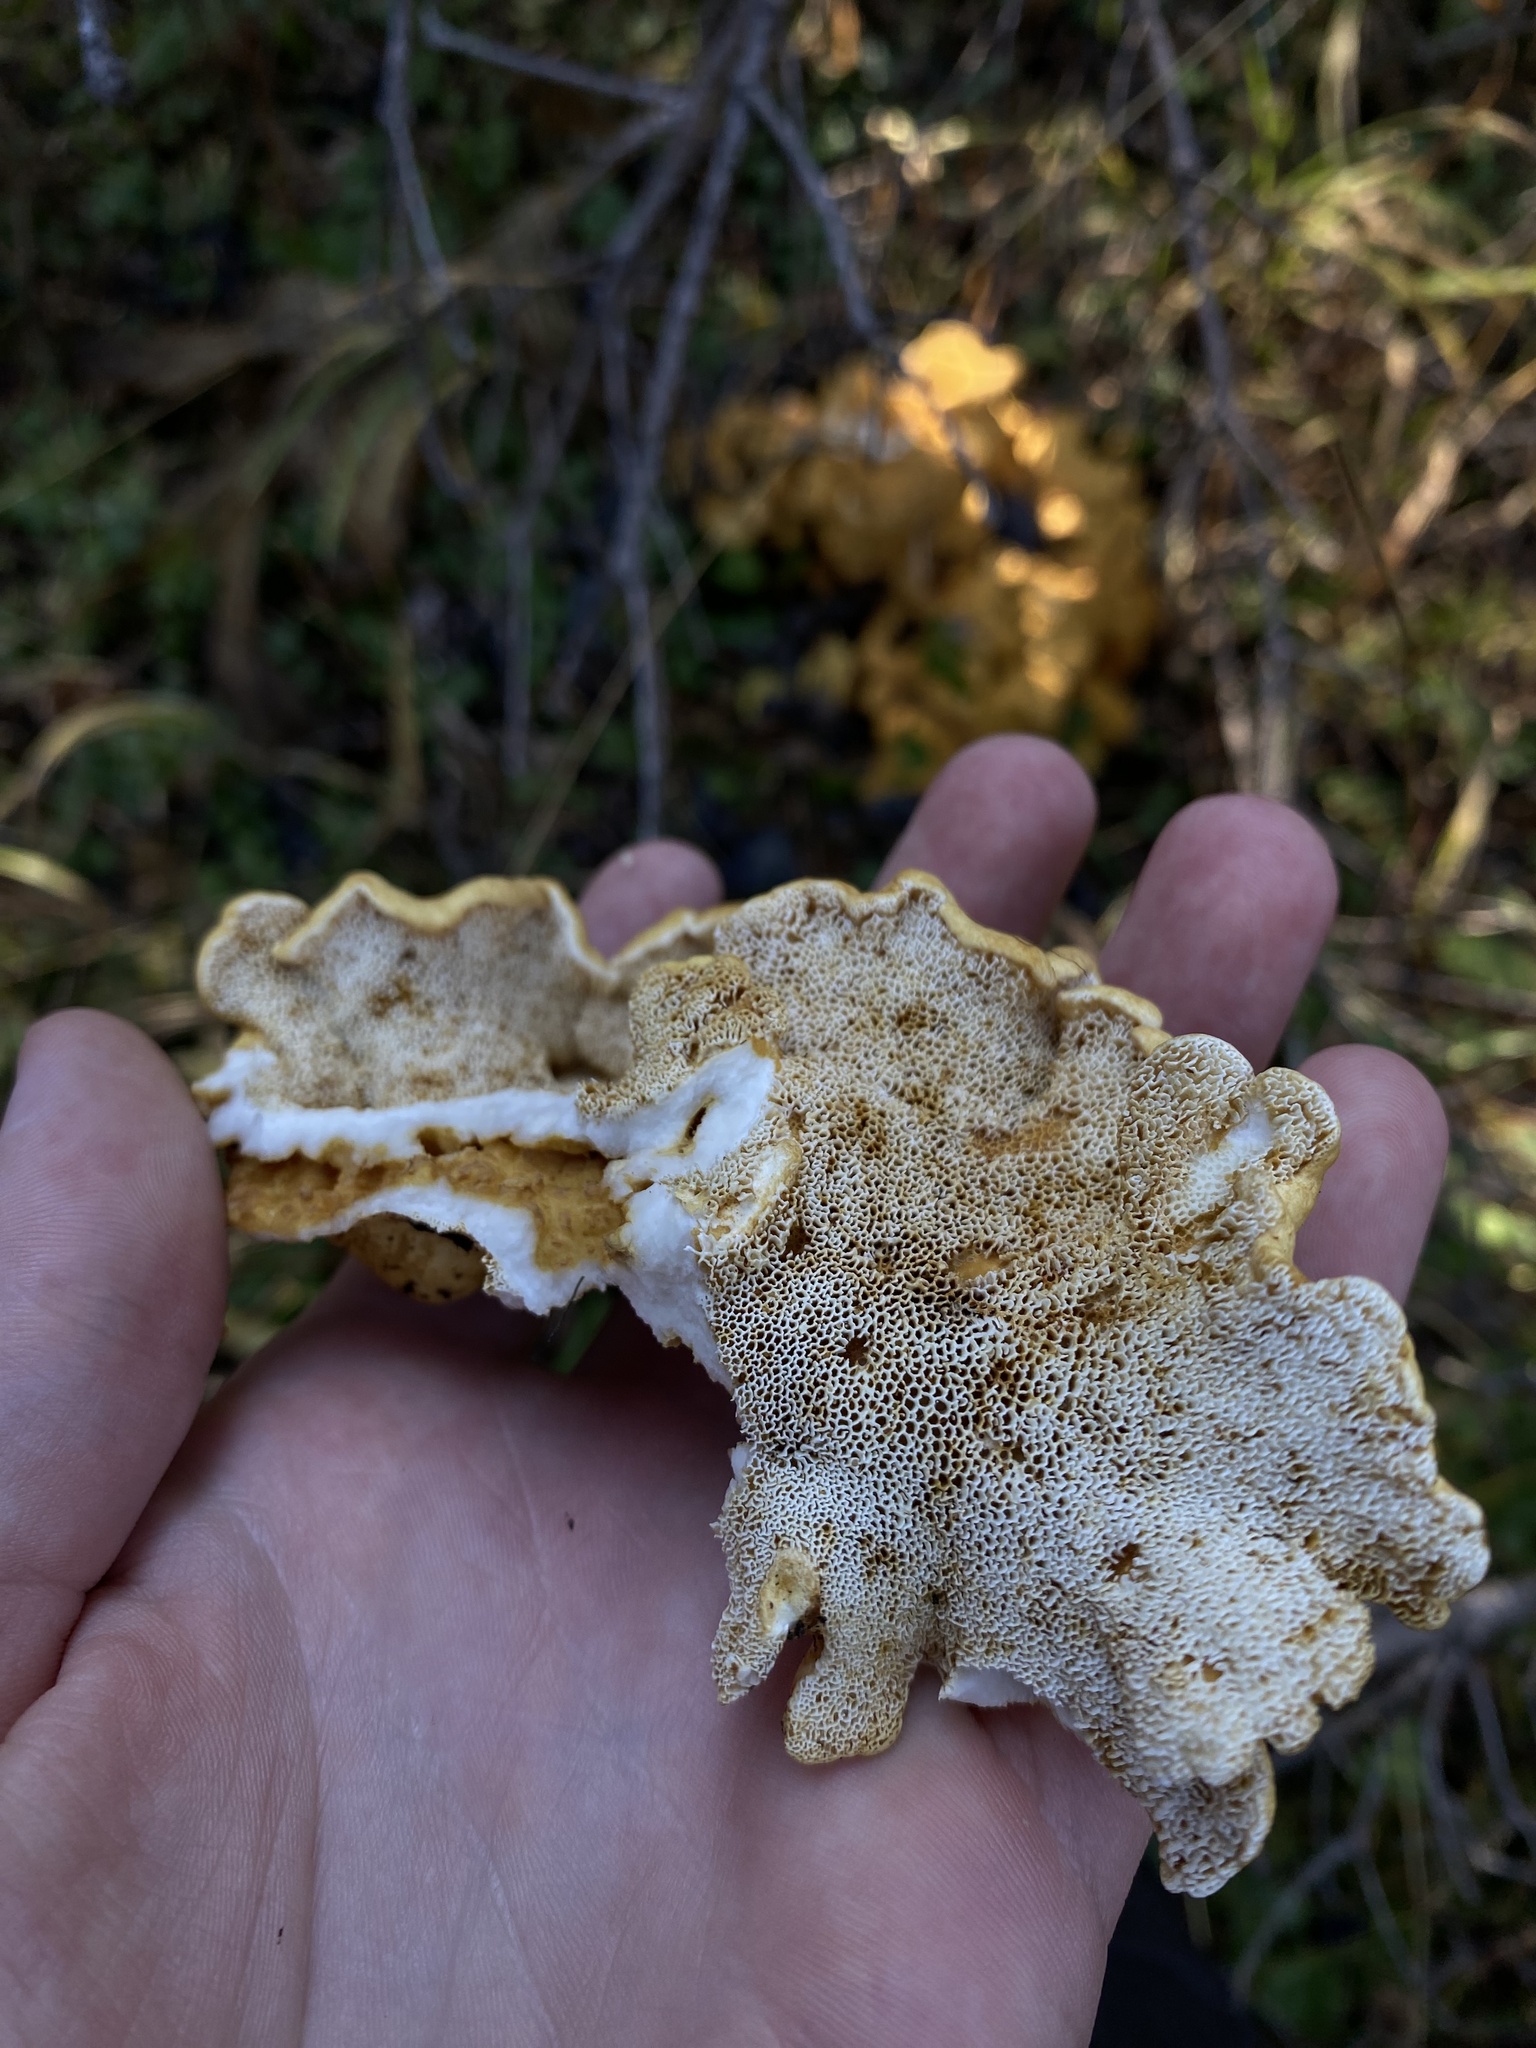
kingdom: Fungi
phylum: Basidiomycota
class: Agaricomycetes
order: Russulales
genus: Polypus
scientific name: Polypus dispansus
